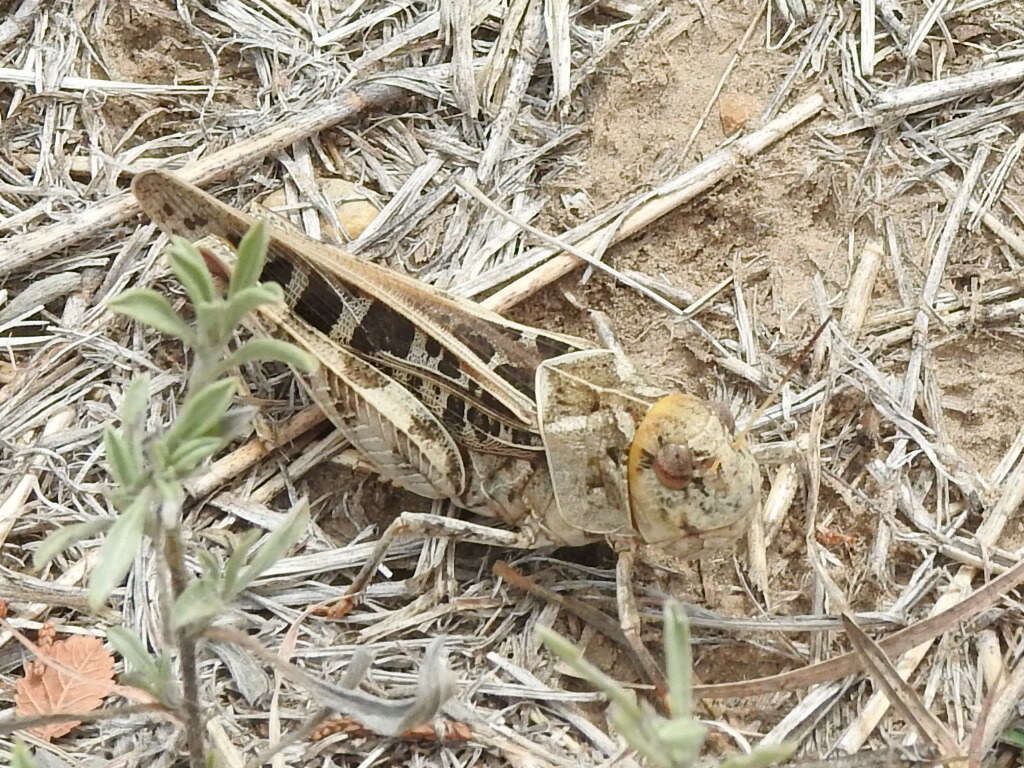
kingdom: Animalia
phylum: Arthropoda
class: Insecta
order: Orthoptera
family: Acrididae
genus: Hippiscus
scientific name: Hippiscus ocelote
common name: Wrinkled grasshopper
